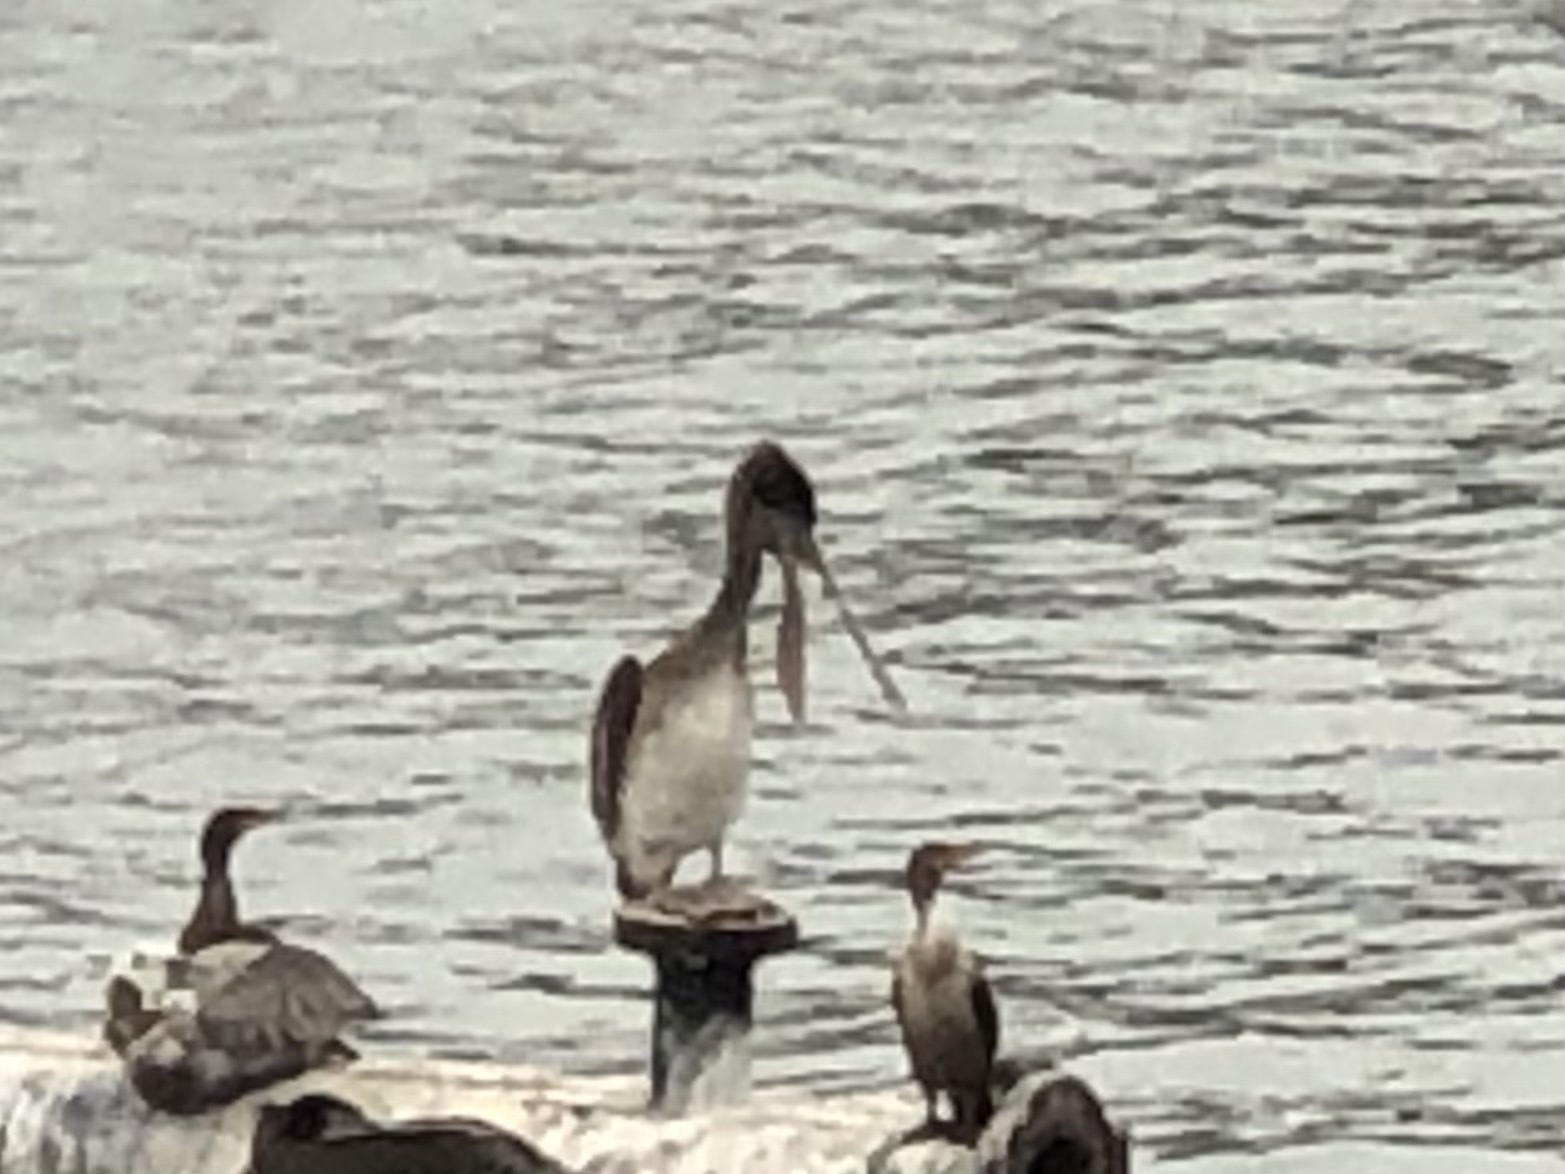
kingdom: Animalia
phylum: Chordata
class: Aves
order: Pelecaniformes
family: Pelecanidae
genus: Pelecanus
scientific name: Pelecanus occidentalis
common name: Brown pelican
